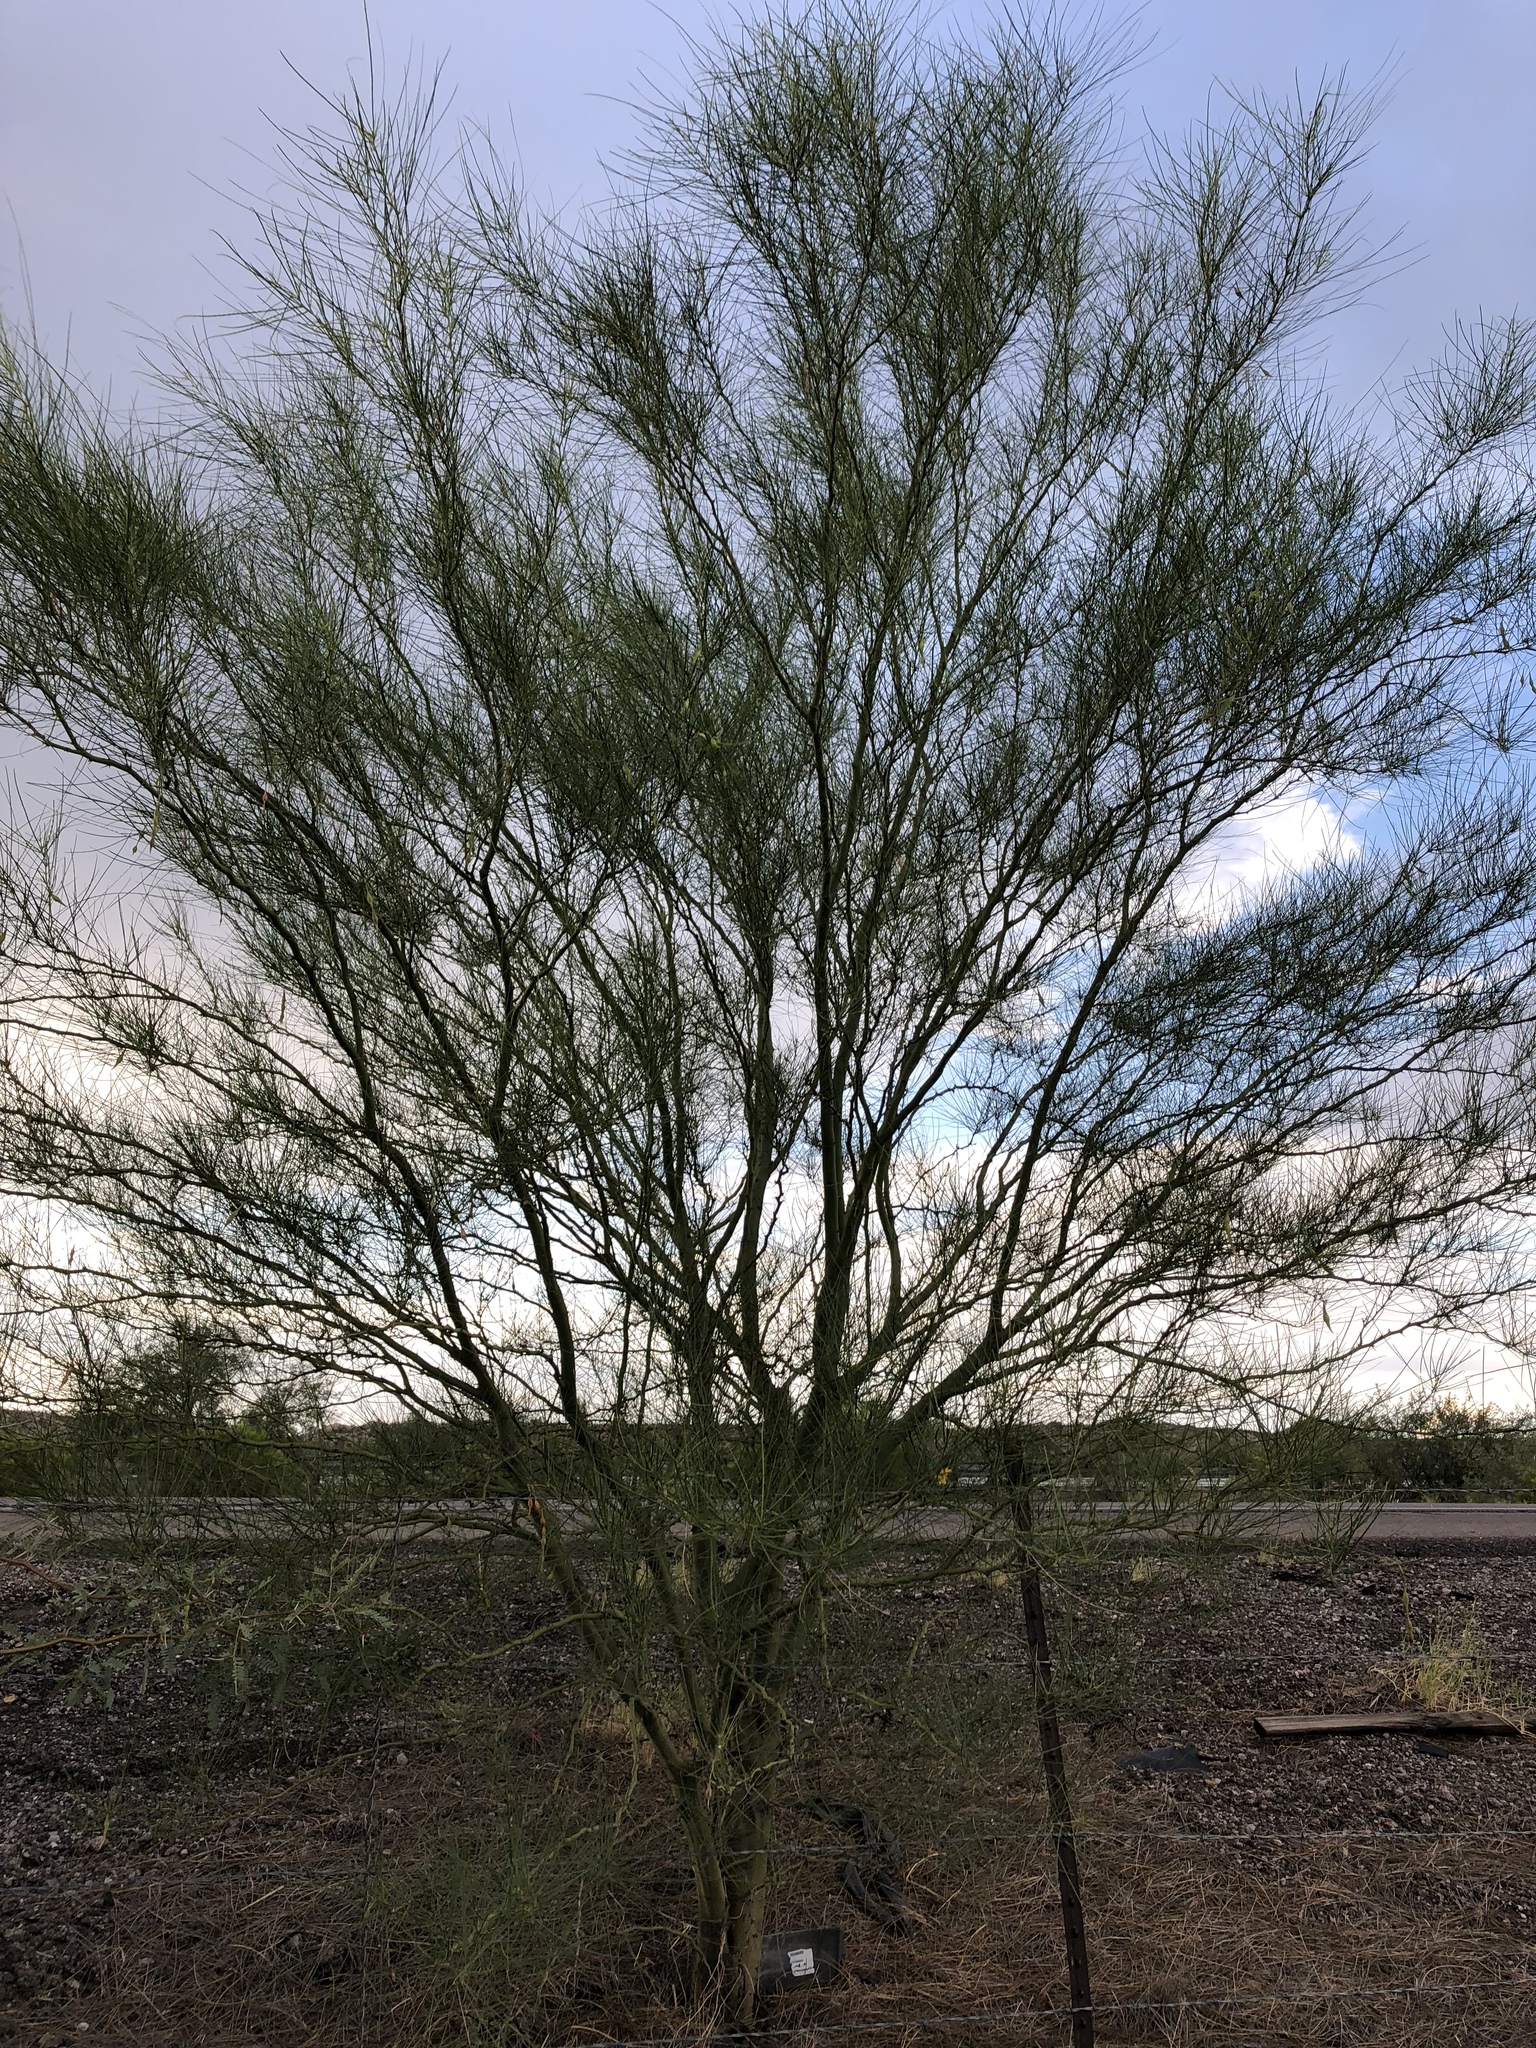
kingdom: Plantae
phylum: Tracheophyta
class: Magnoliopsida
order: Fabales
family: Fabaceae
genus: Parkinsonia
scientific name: Parkinsonia aculeata
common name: Jerusalem thorn
